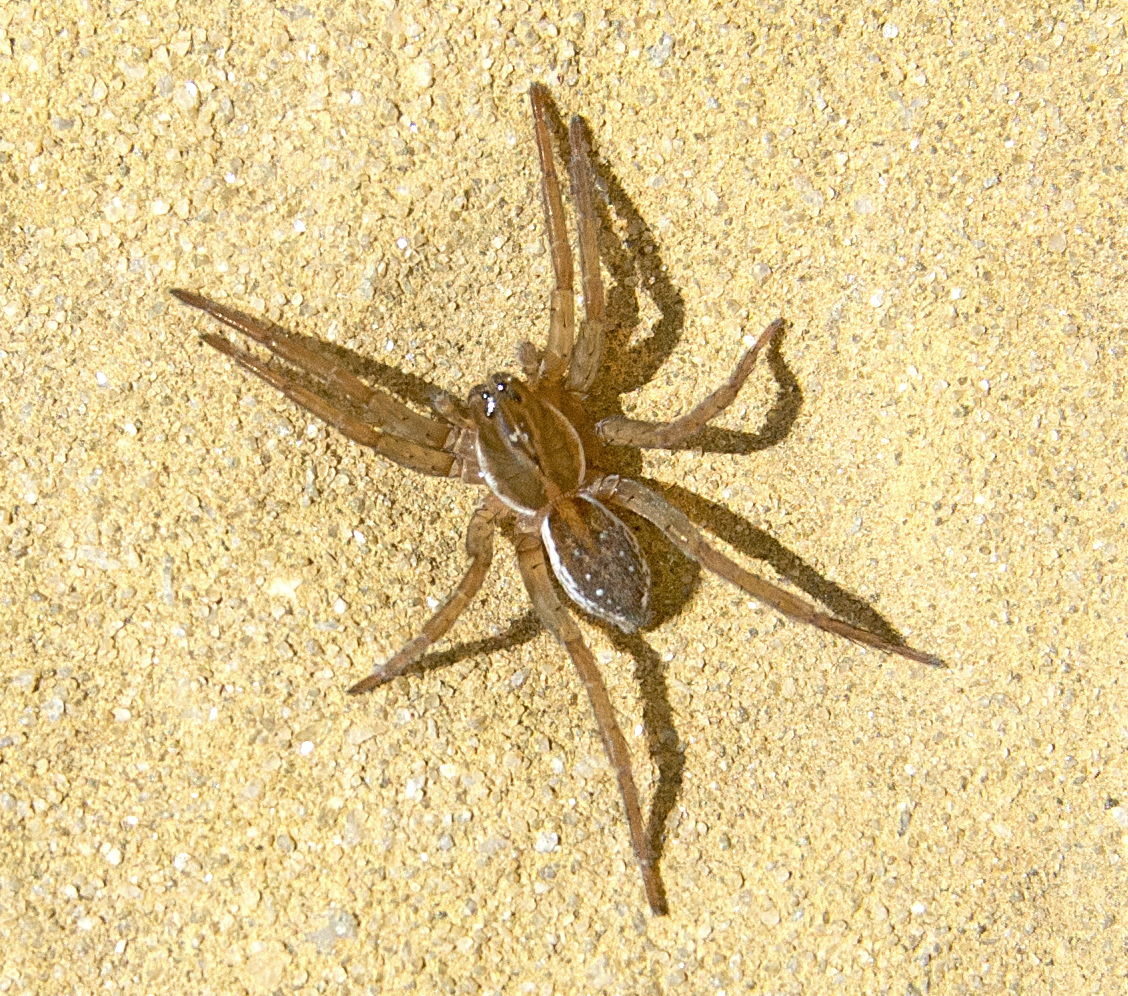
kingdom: Animalia
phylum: Arthropoda
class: Arachnida
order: Araneae
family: Lycosidae
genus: Pirata
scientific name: Pirata piraticus
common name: Pirate otter spider
